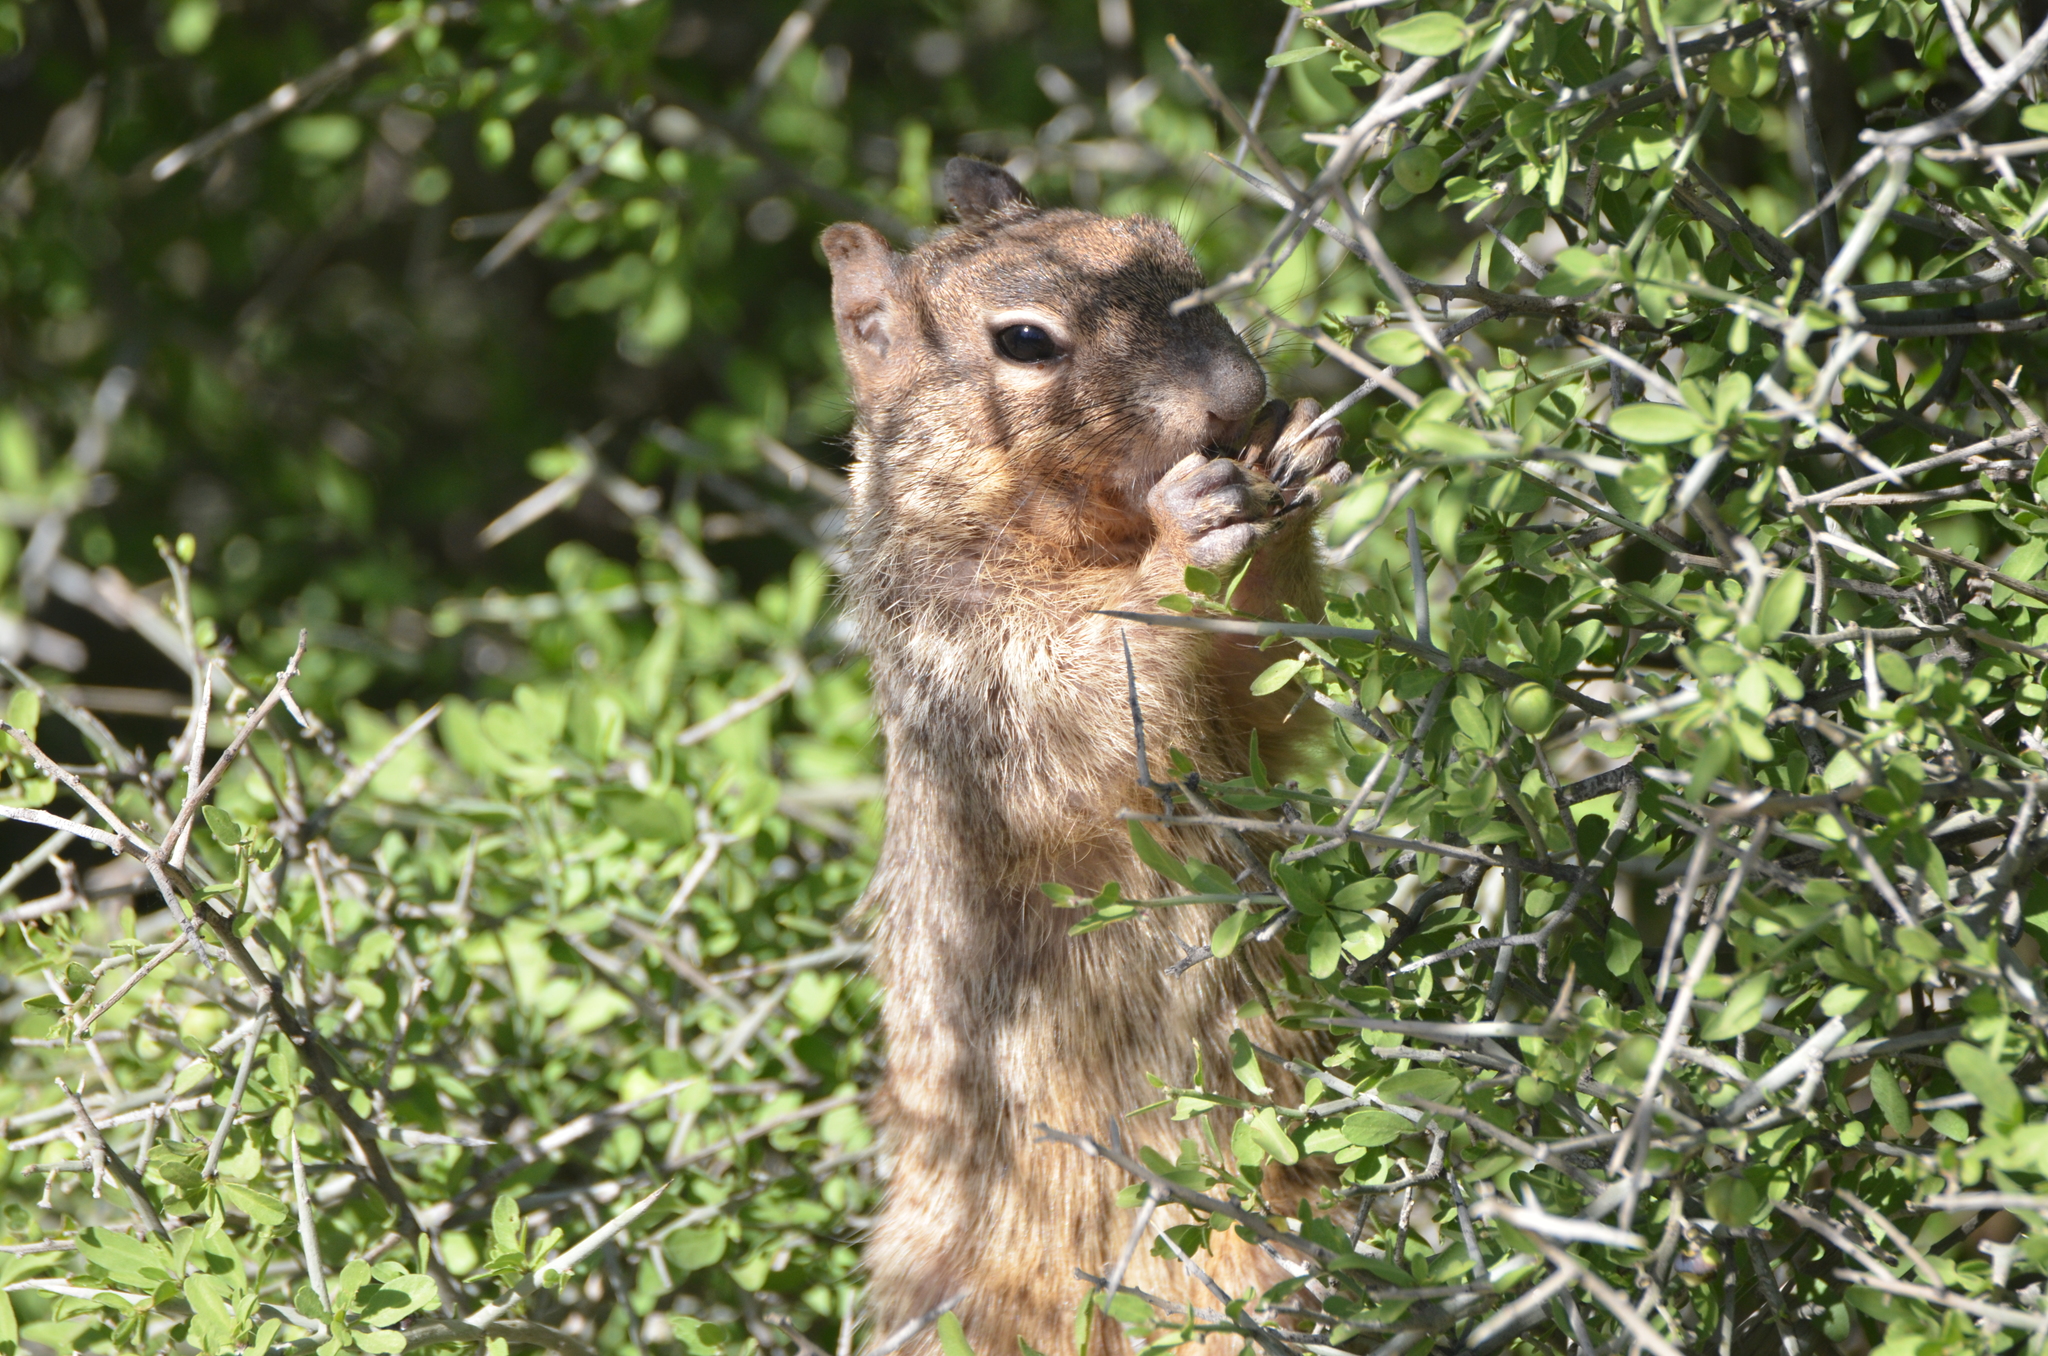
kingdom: Animalia
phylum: Chordata
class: Mammalia
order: Rodentia
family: Sciuridae
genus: Otospermophilus
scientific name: Otospermophilus variegatus
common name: Rock squirrel
